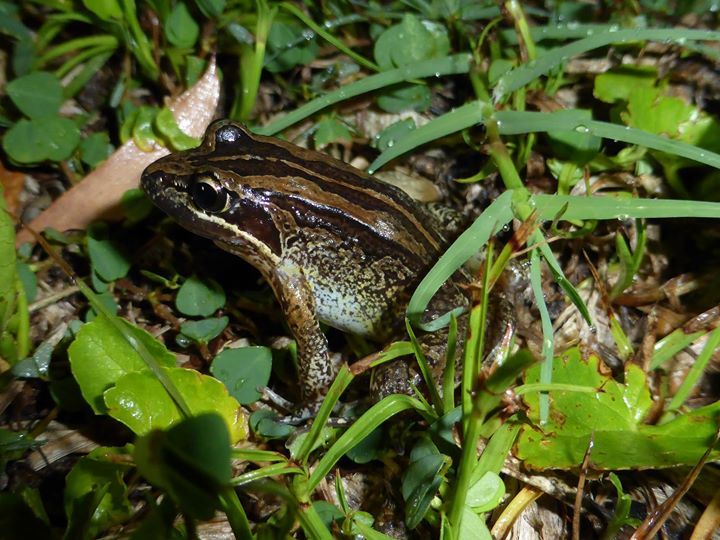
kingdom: Animalia
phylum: Chordata
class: Amphibia
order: Anura
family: Limnodynastidae
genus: Limnodynastes
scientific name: Limnodynastes peronii
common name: Brown frog
